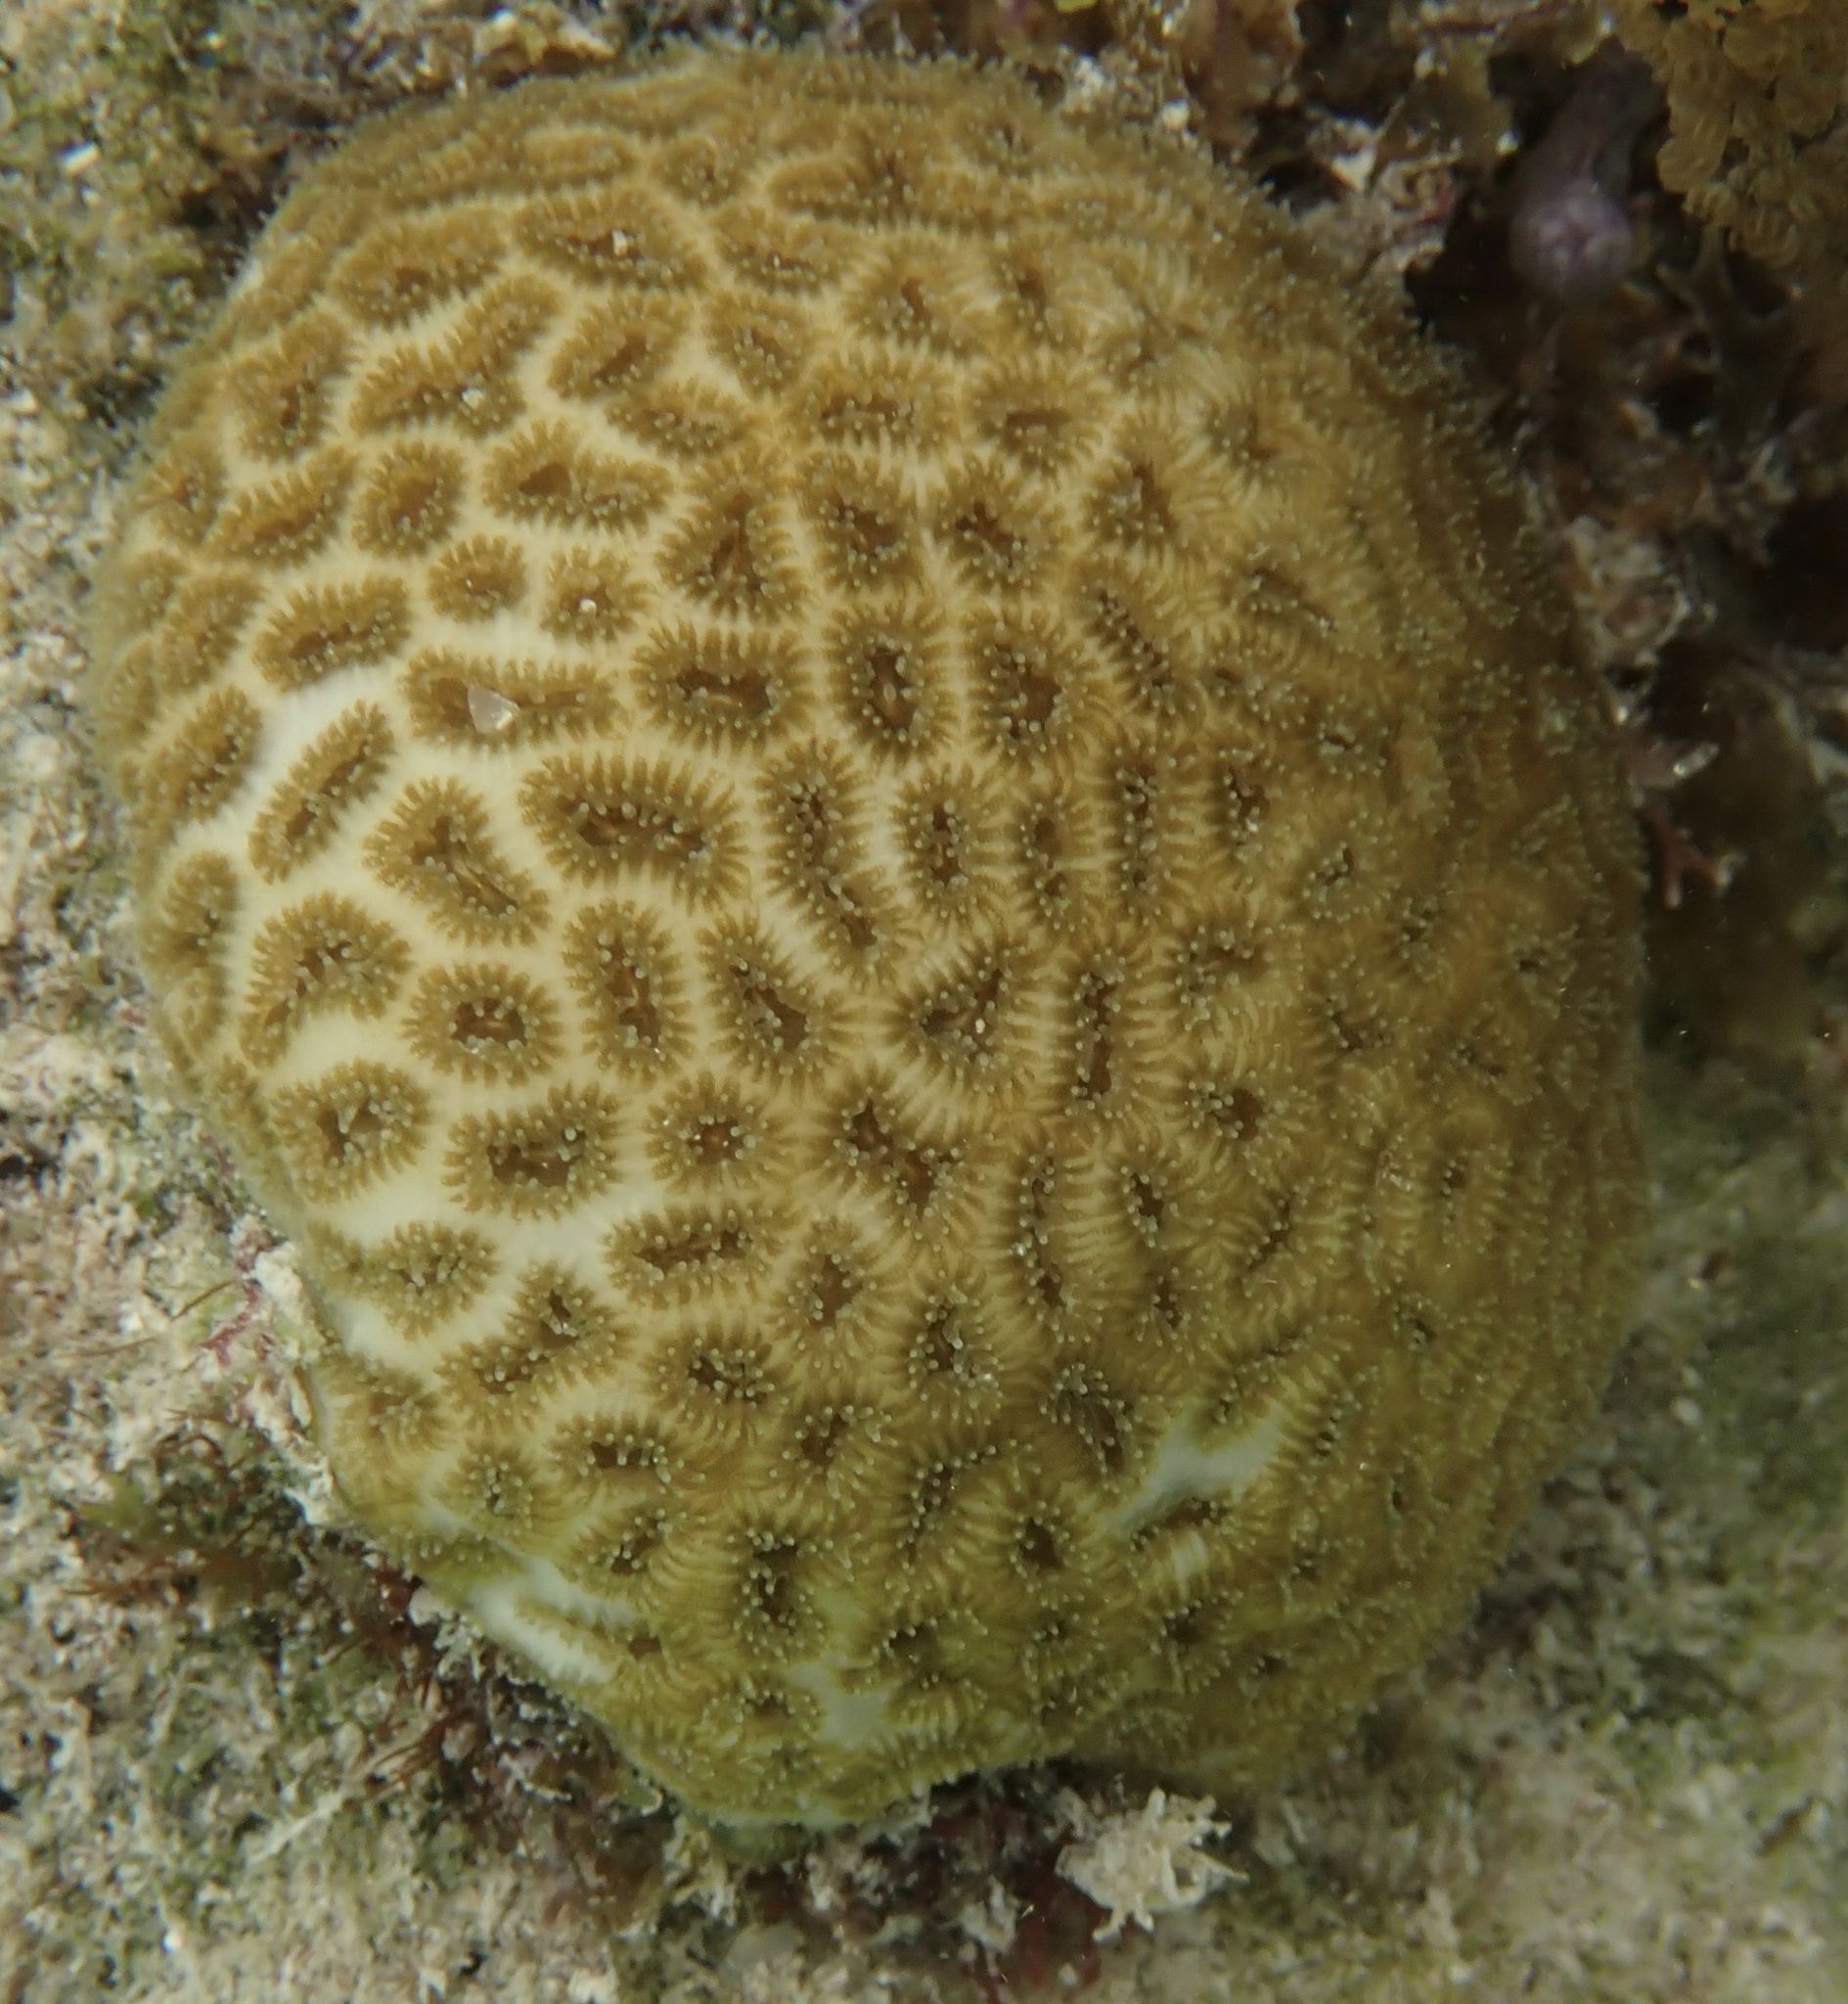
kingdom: Animalia
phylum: Cnidaria
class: Anthozoa
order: Scleractinia
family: Faviidae
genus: Favia
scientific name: Favia fragum
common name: Golfball coral
